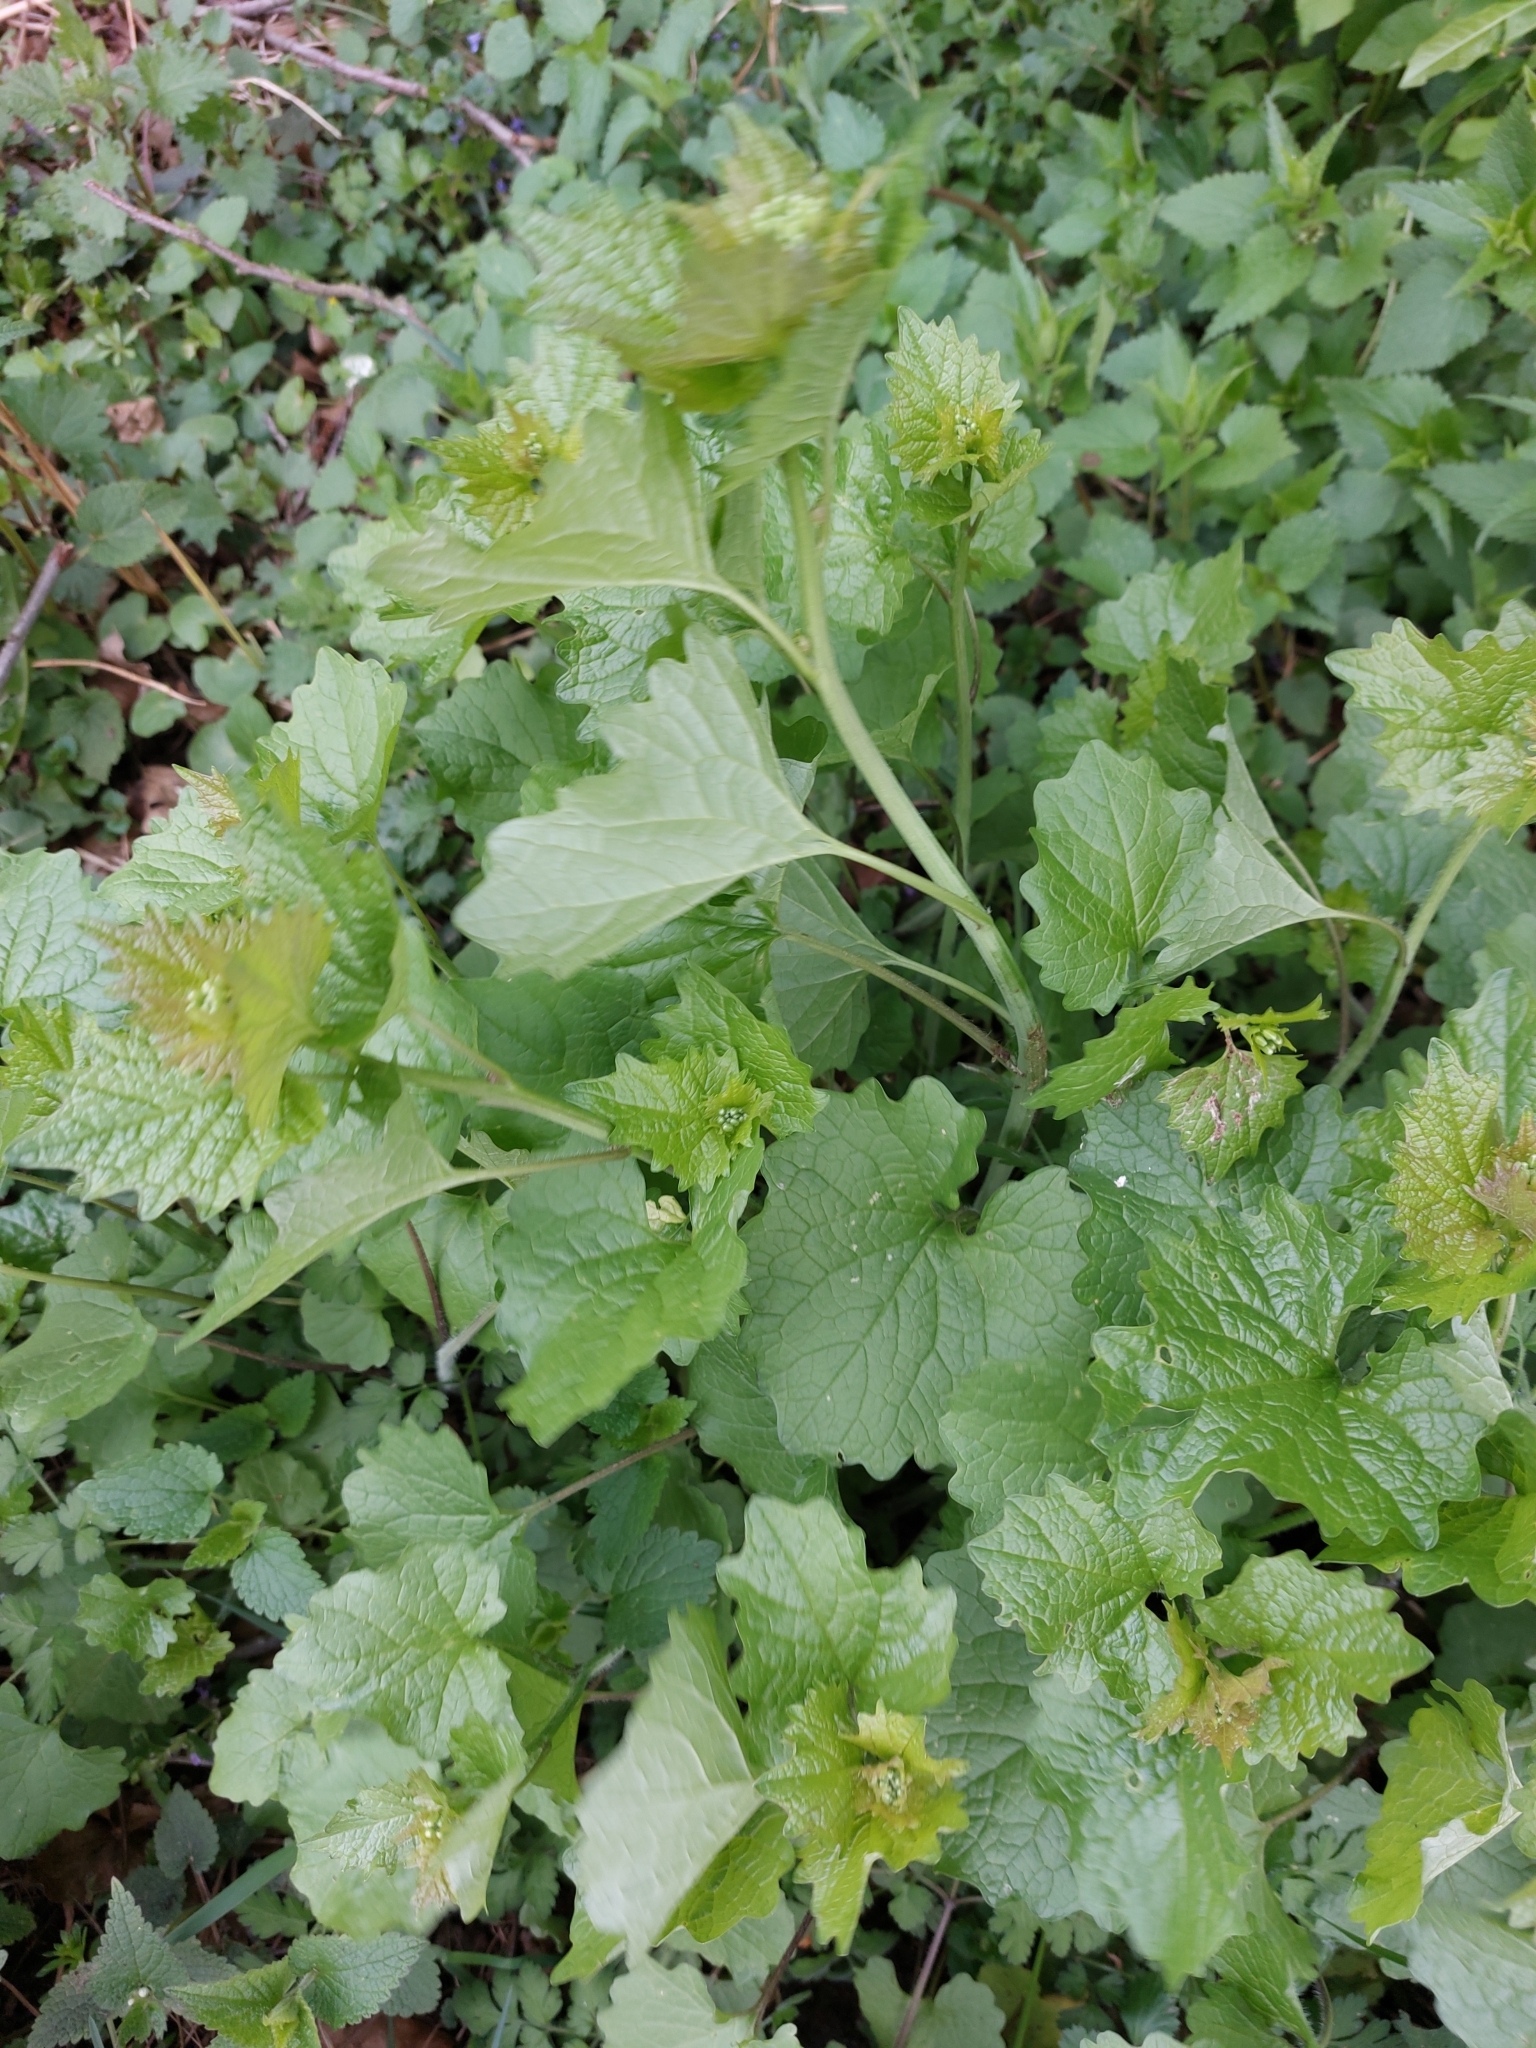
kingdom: Plantae
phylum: Tracheophyta
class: Magnoliopsida
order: Brassicales
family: Brassicaceae
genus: Alliaria
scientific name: Alliaria petiolata
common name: Garlic mustard
